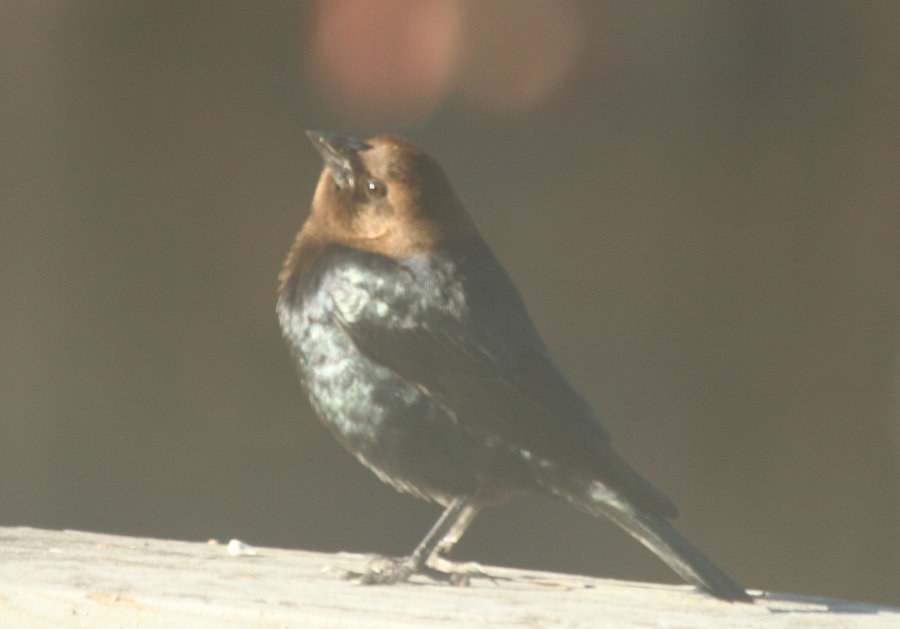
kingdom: Animalia
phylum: Chordata
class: Aves
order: Passeriformes
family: Icteridae
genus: Molothrus
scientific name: Molothrus ater
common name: Brown-headed cowbird
